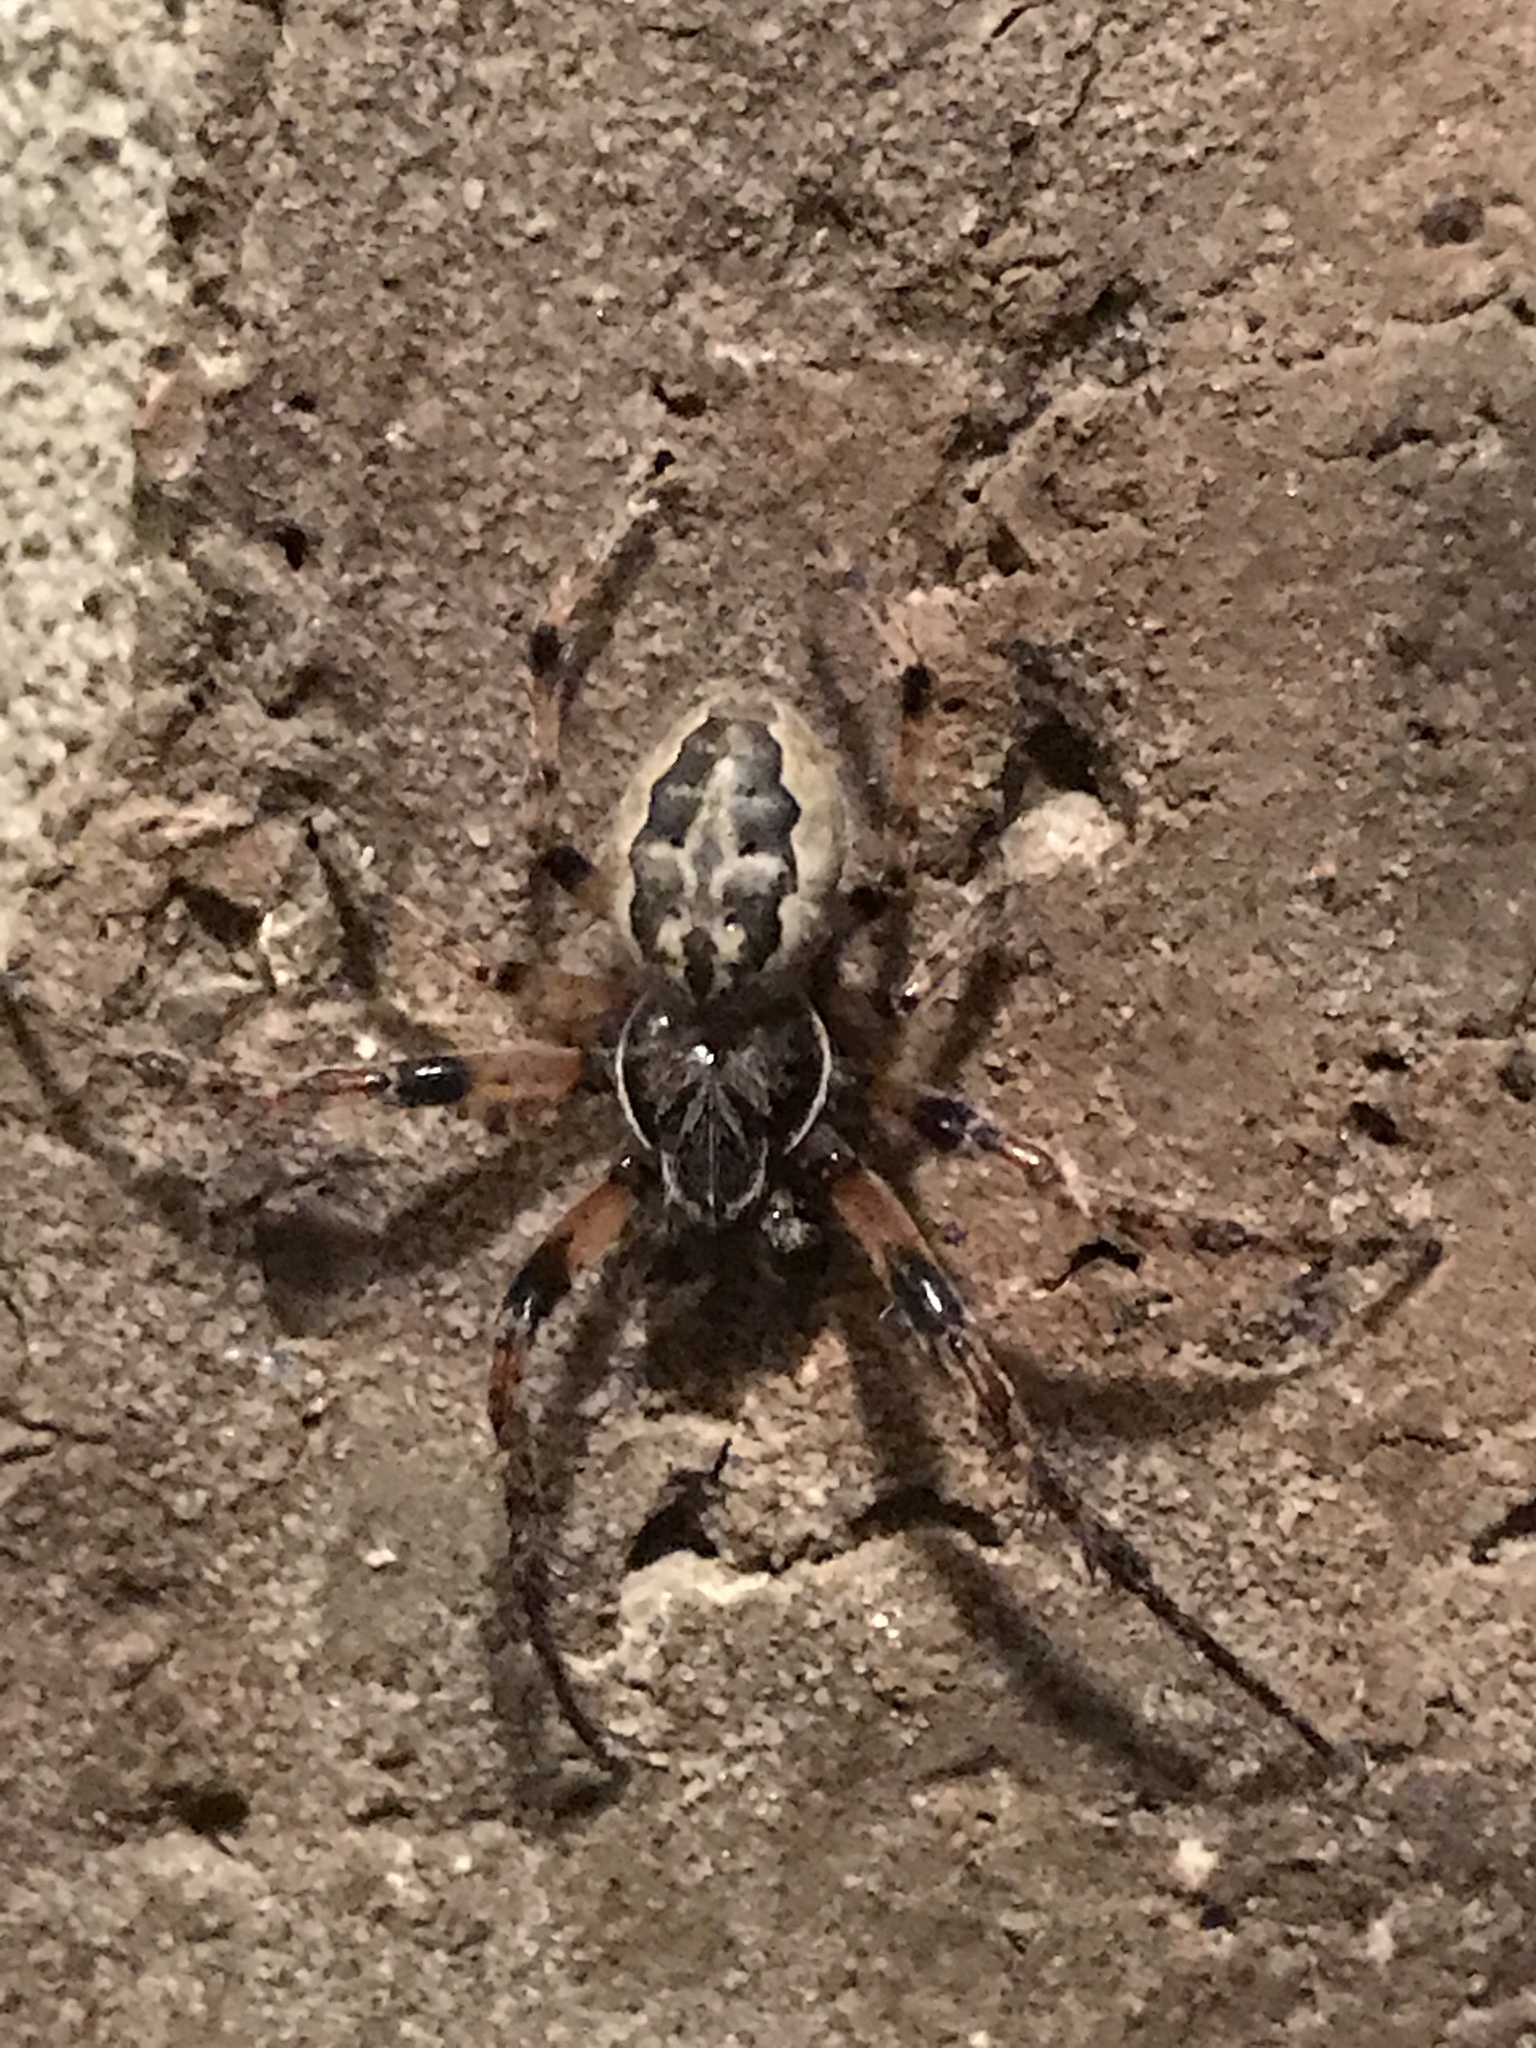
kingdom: Animalia
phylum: Arthropoda
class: Arachnida
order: Araneae
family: Araneidae
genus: Larinioides
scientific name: Larinioides cornutus
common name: Furrow orbweaver
